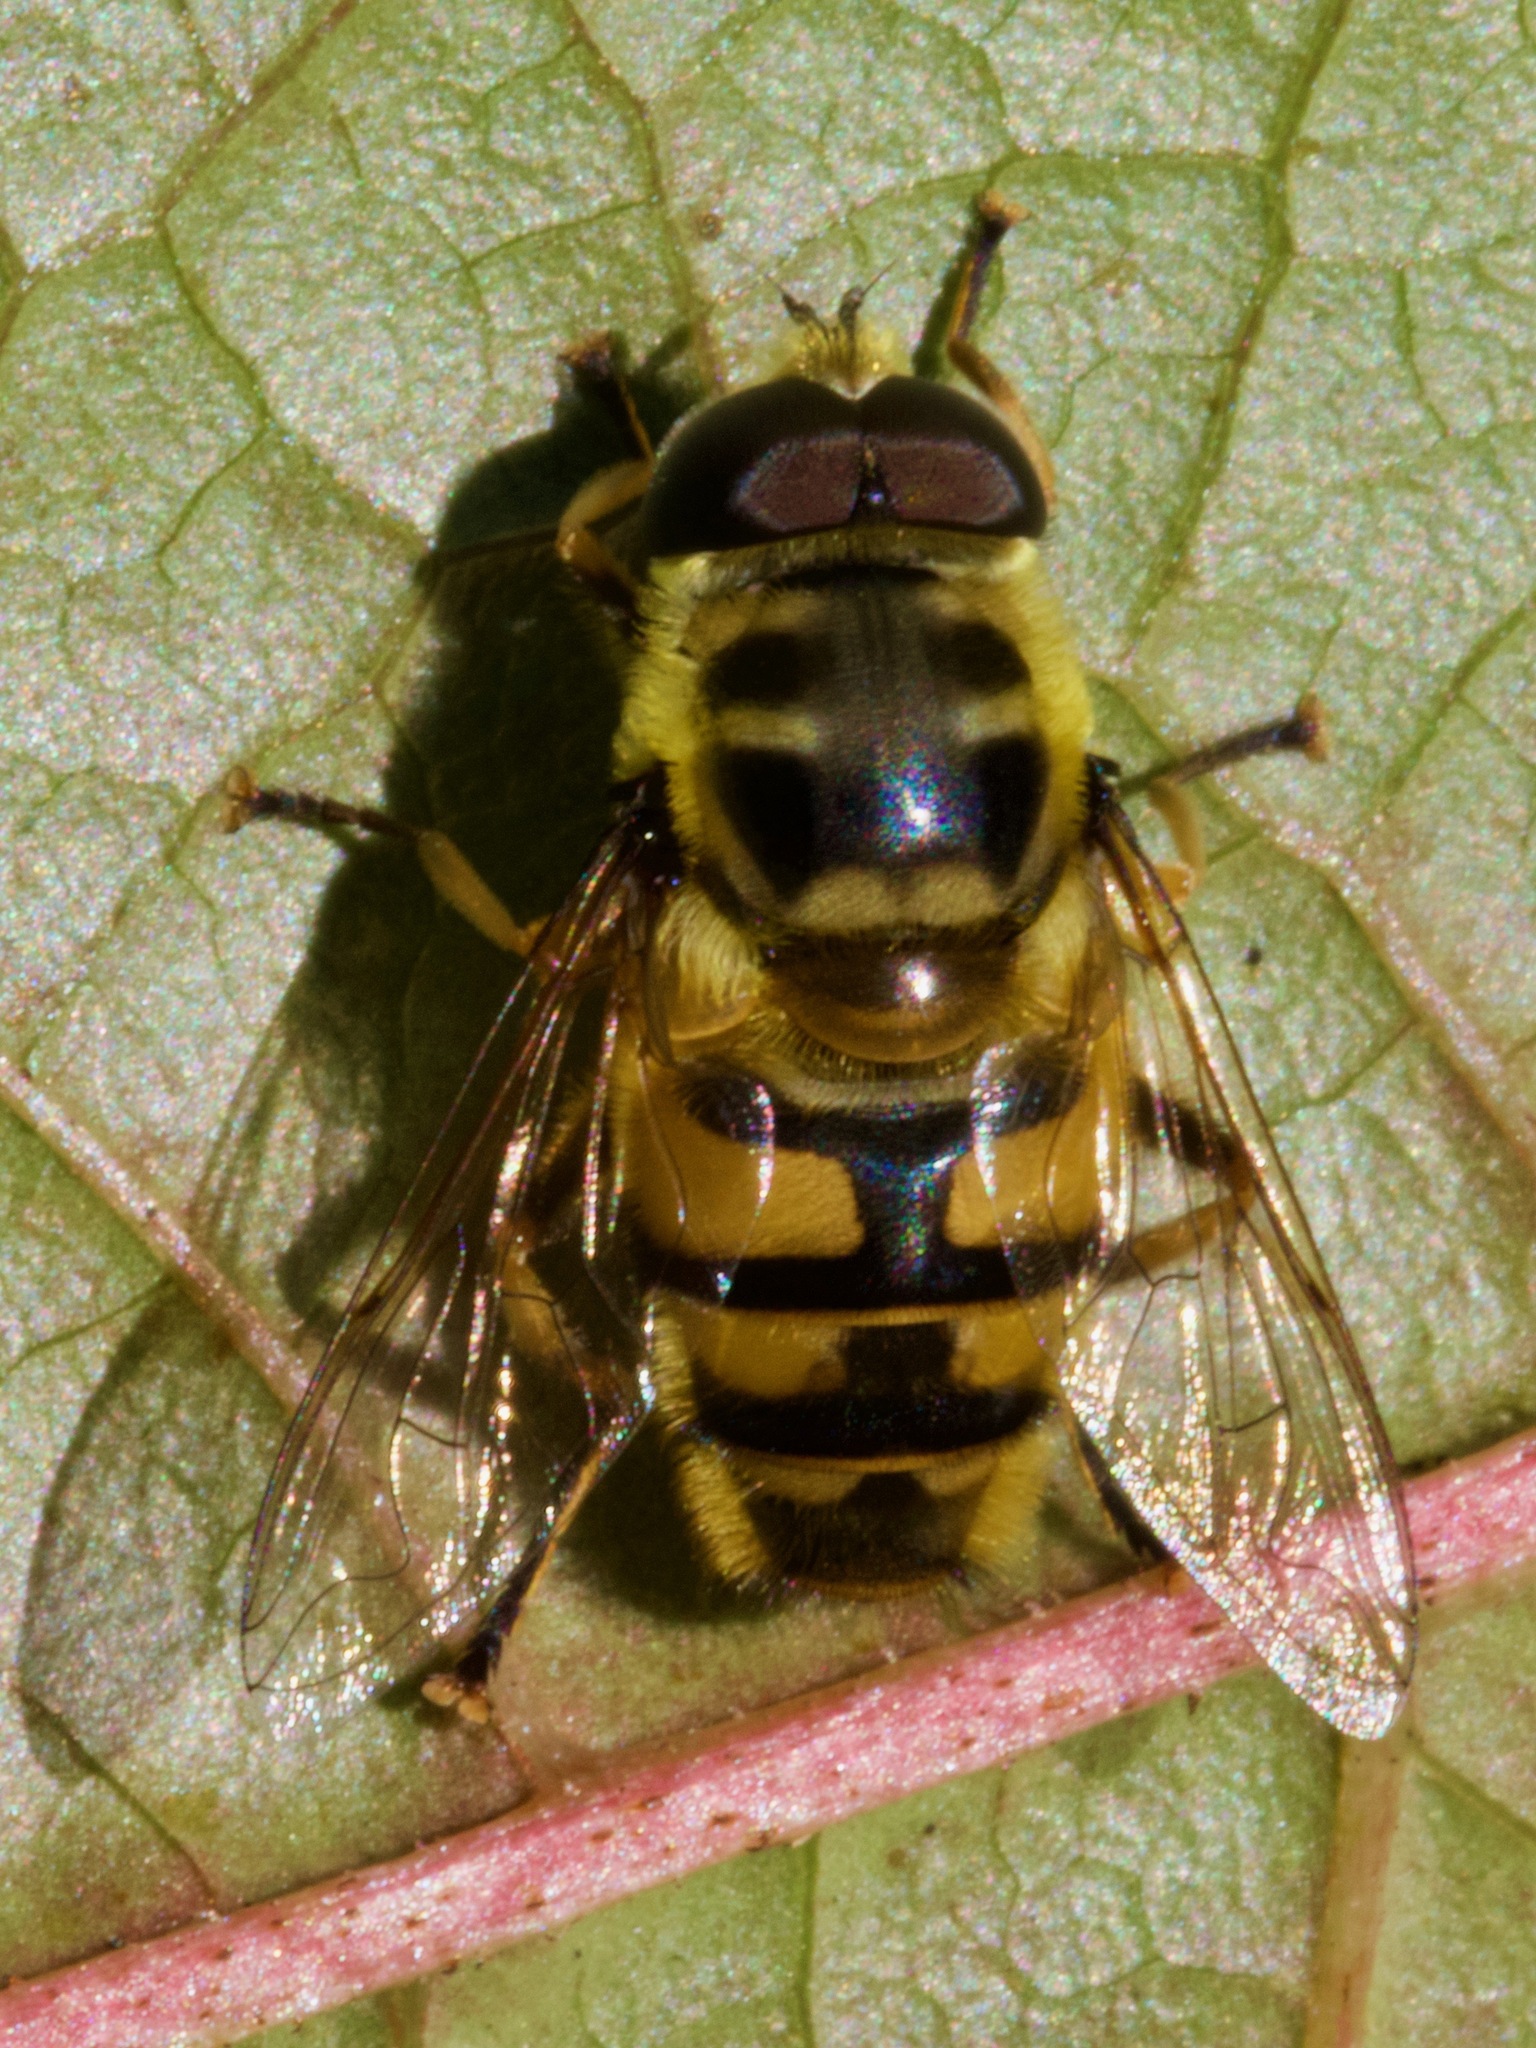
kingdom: Animalia
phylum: Arthropoda
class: Insecta
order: Diptera
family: Syrphidae
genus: Myathropa
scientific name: Myathropa florea
